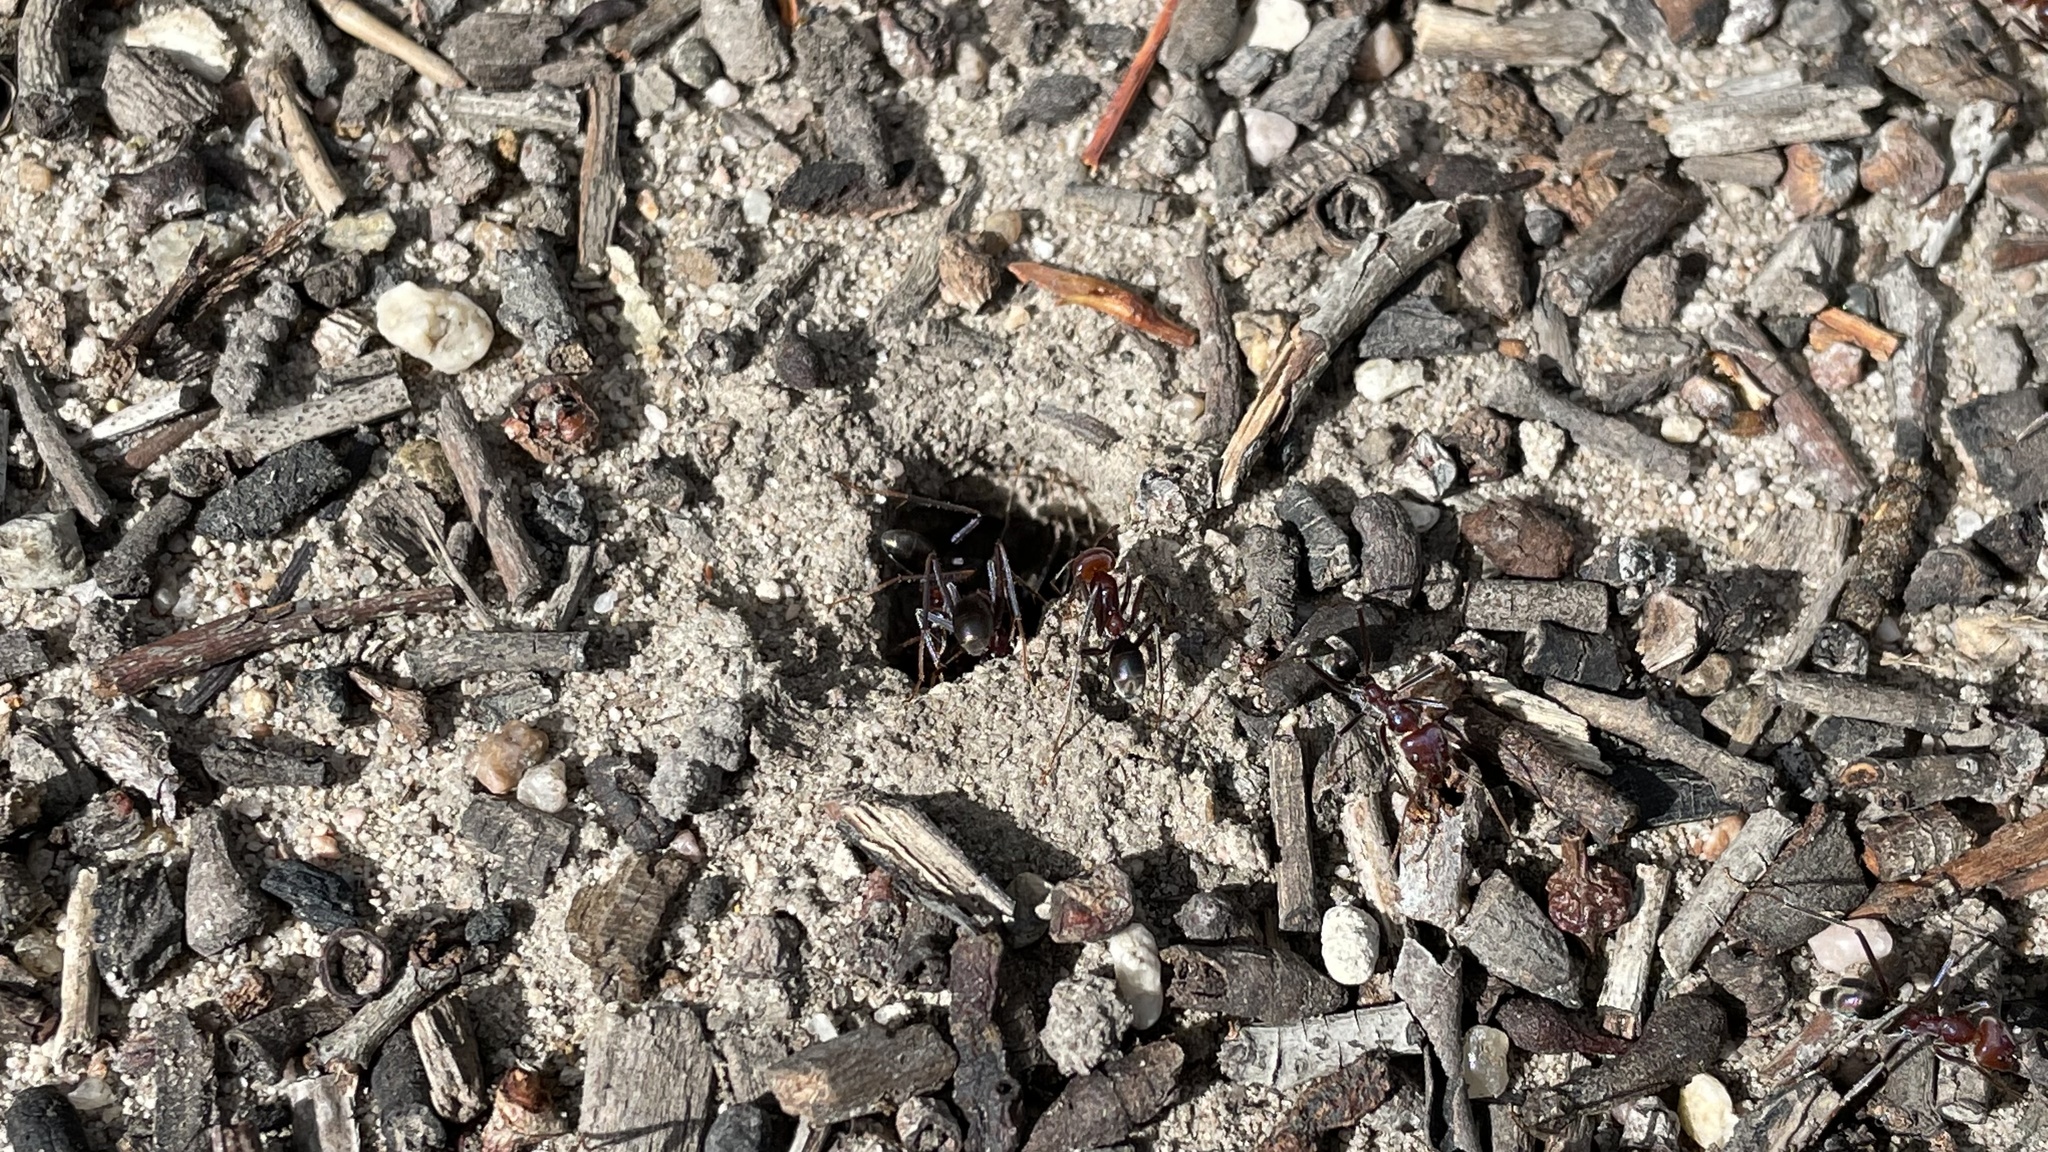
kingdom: Animalia
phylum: Arthropoda
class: Insecta
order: Hymenoptera
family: Formicidae
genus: Iridomyrmex
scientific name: Iridomyrmex purpureus
